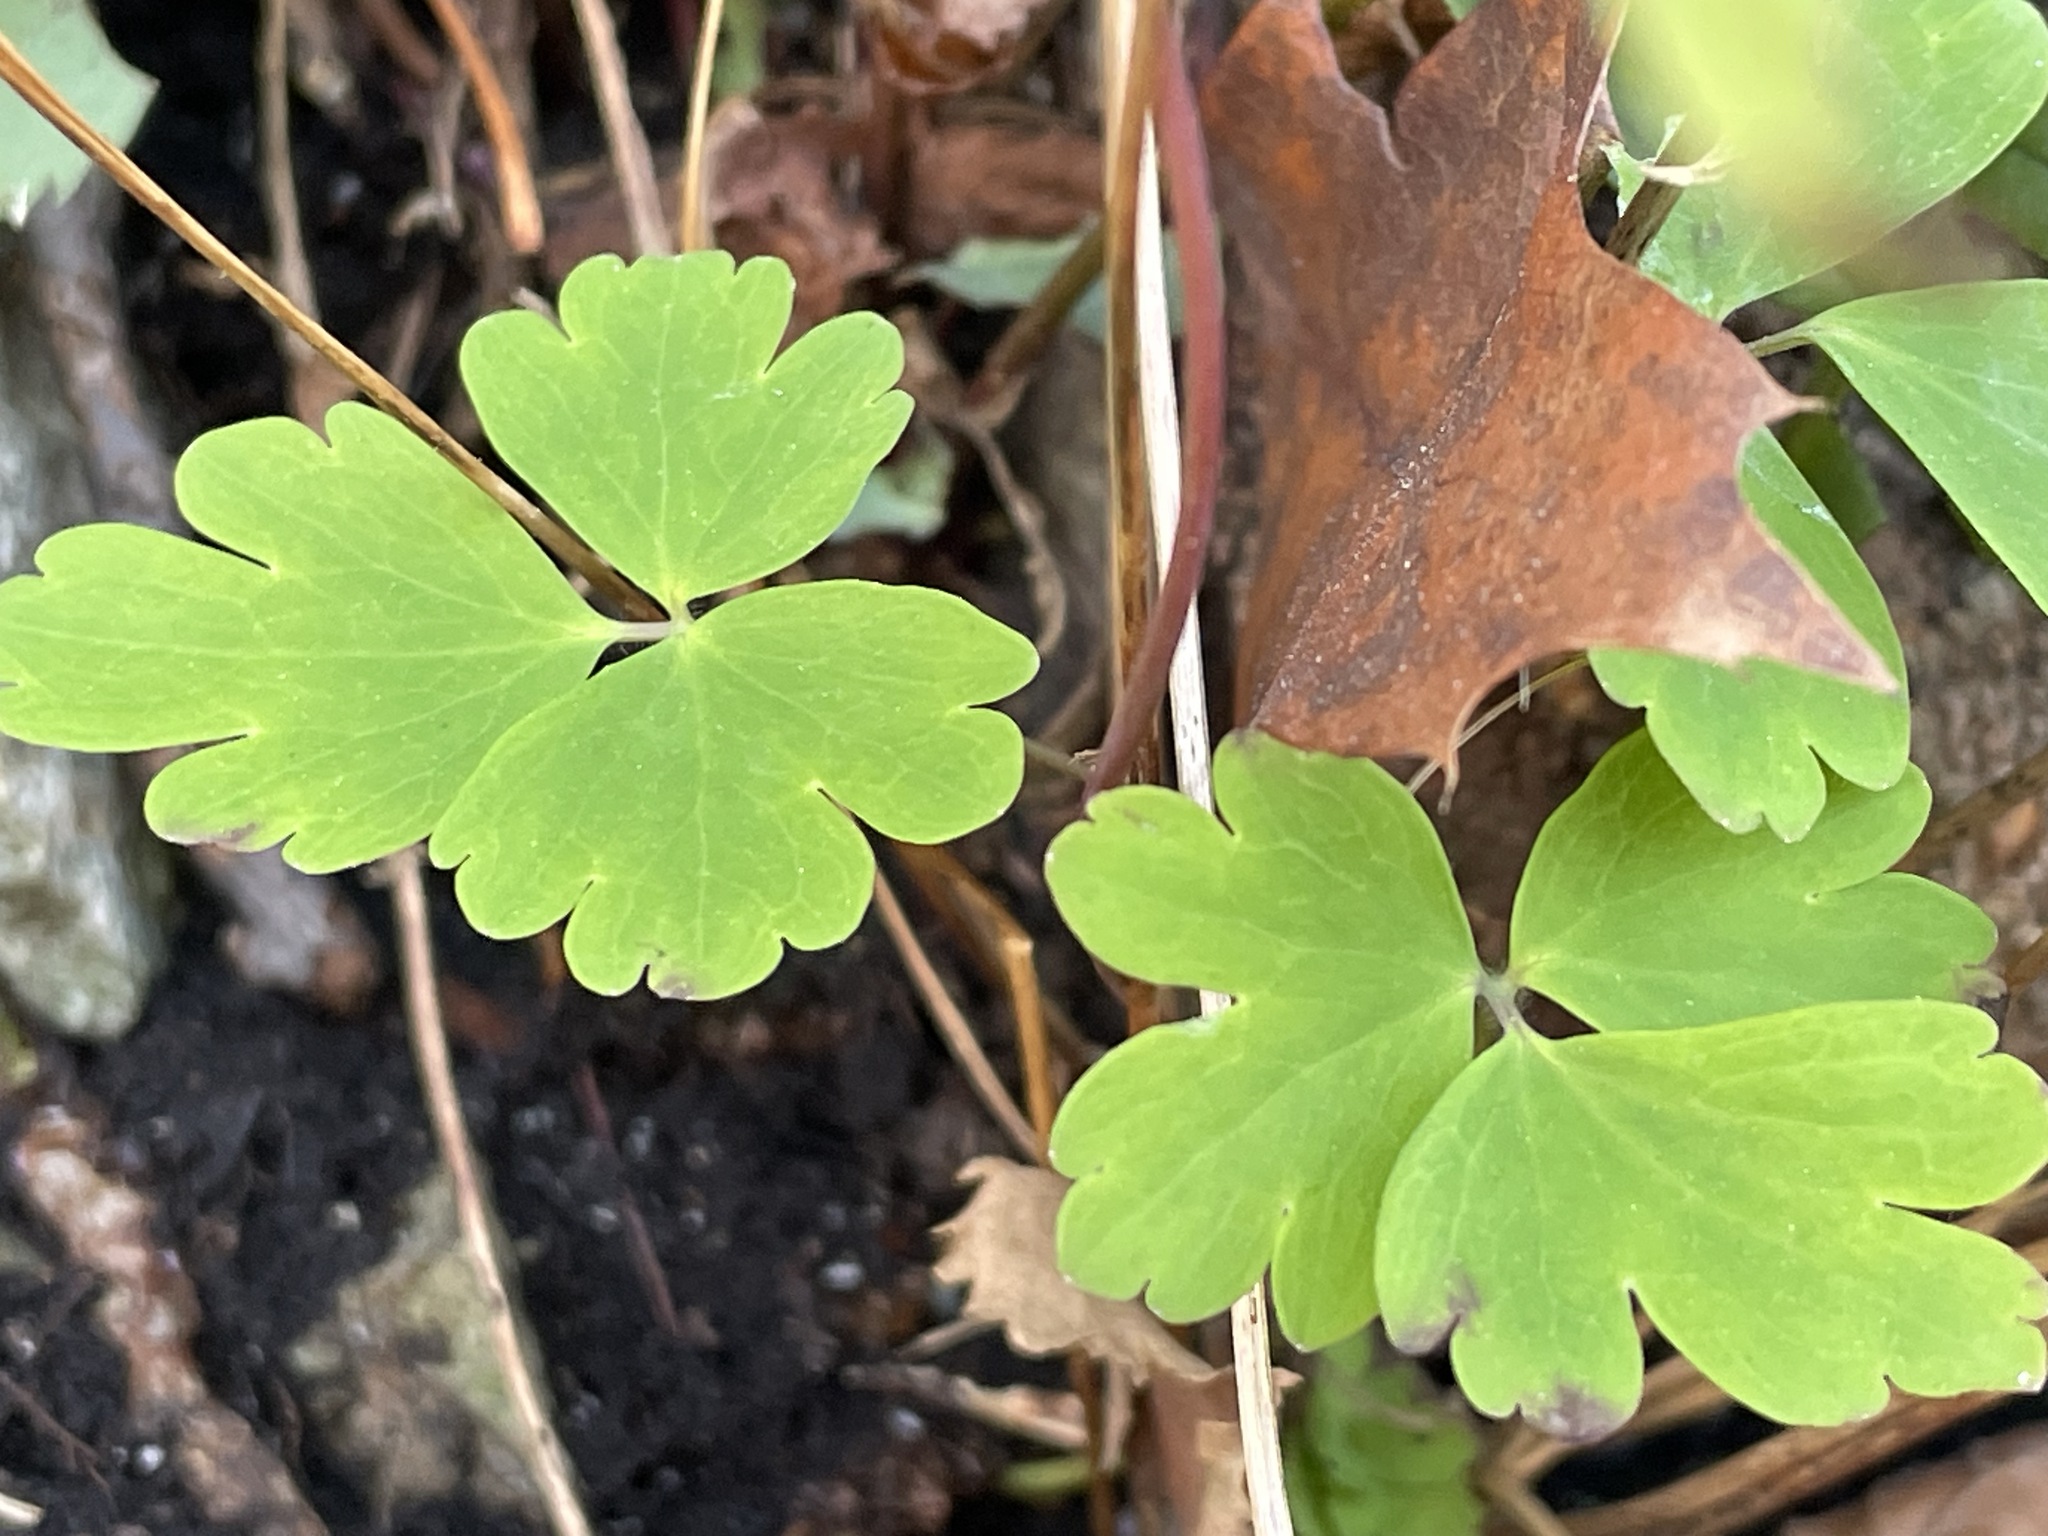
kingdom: Plantae
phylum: Tracheophyta
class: Magnoliopsida
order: Ranunculales
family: Ranunculaceae
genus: Aquilegia
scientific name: Aquilegia canadensis
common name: American columbine
